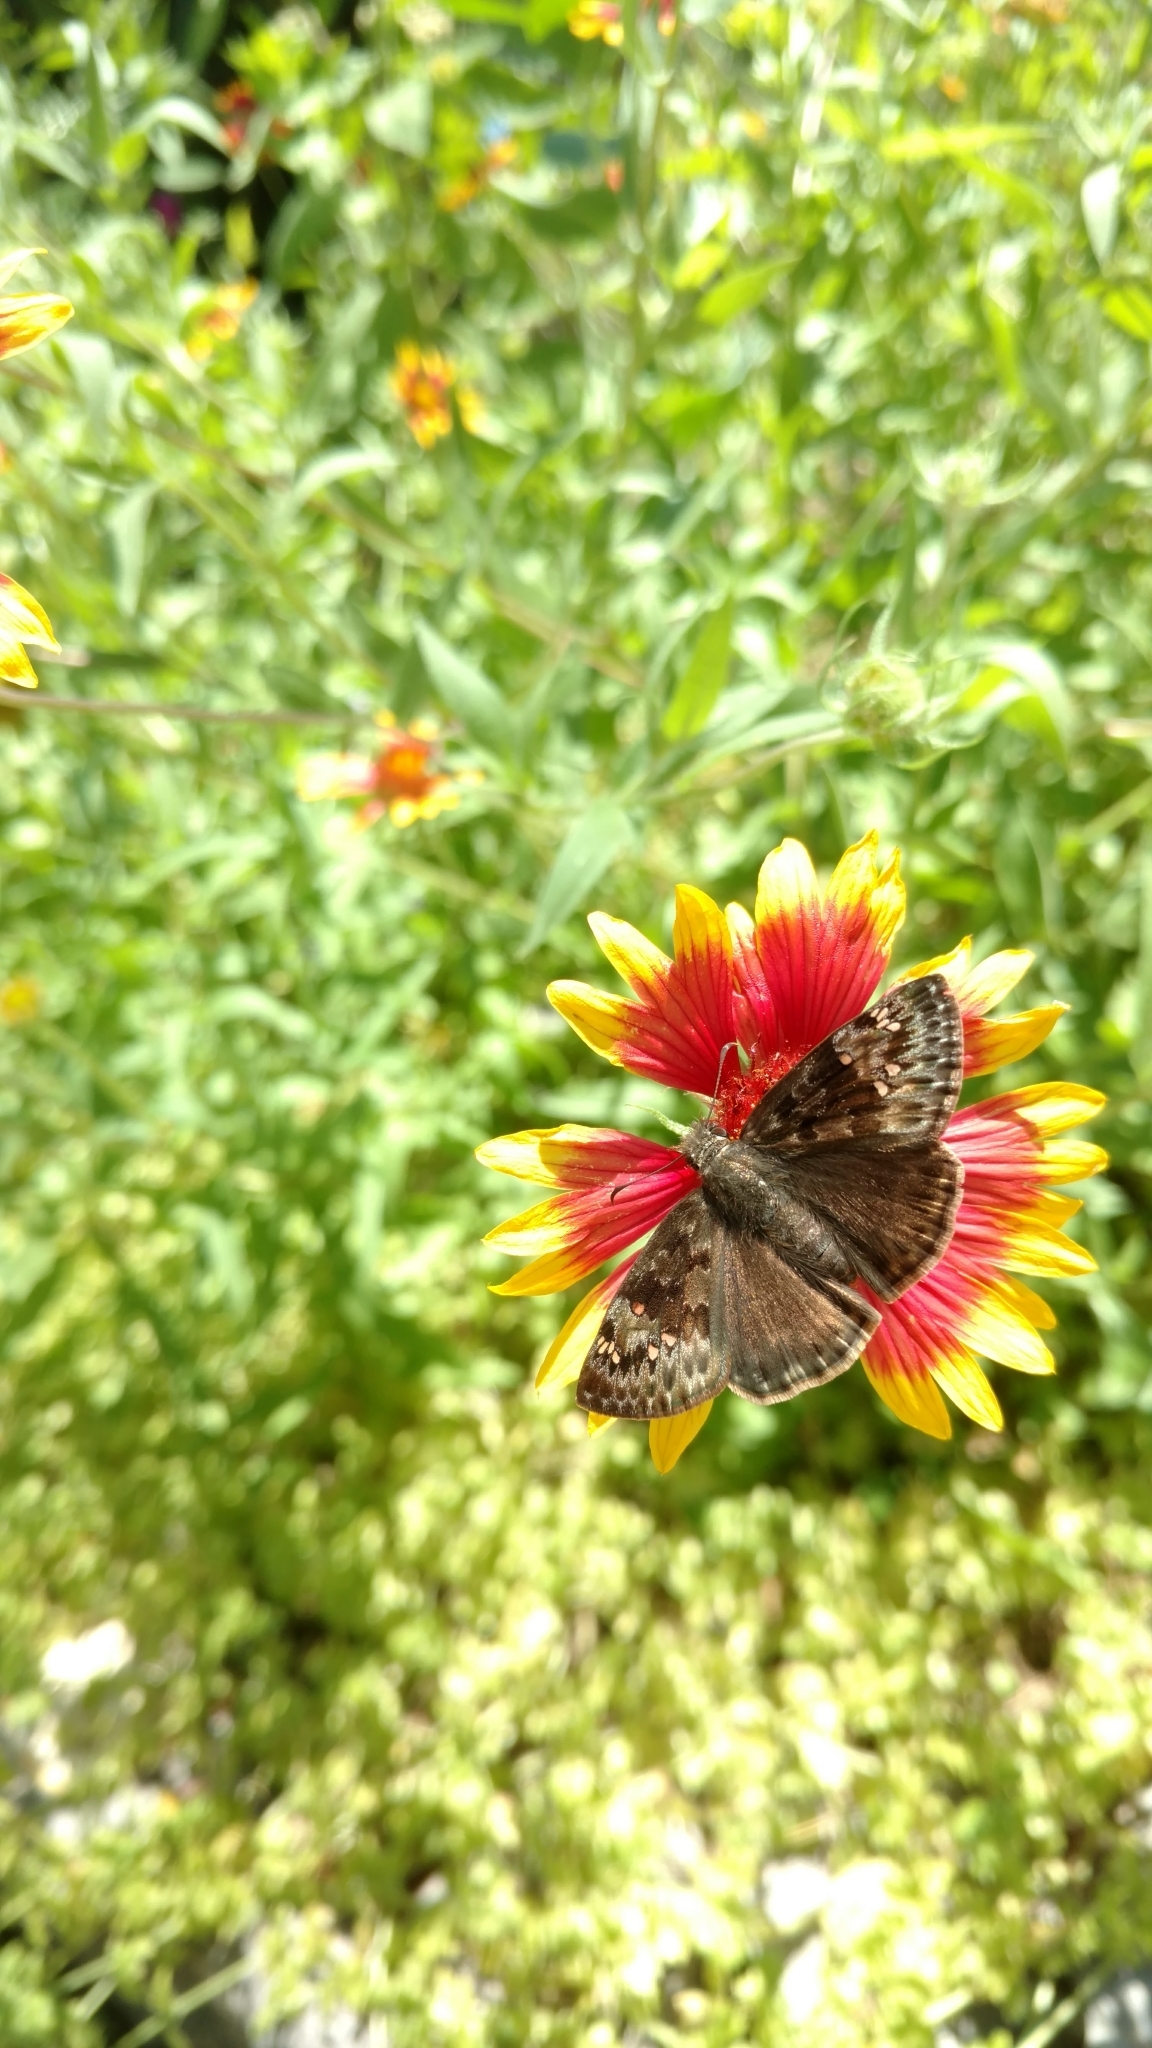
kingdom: Animalia
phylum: Arthropoda
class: Insecta
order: Lepidoptera
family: Hesperiidae
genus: Erynnis
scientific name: Erynnis juvenalis
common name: Juvenal's duskywing
